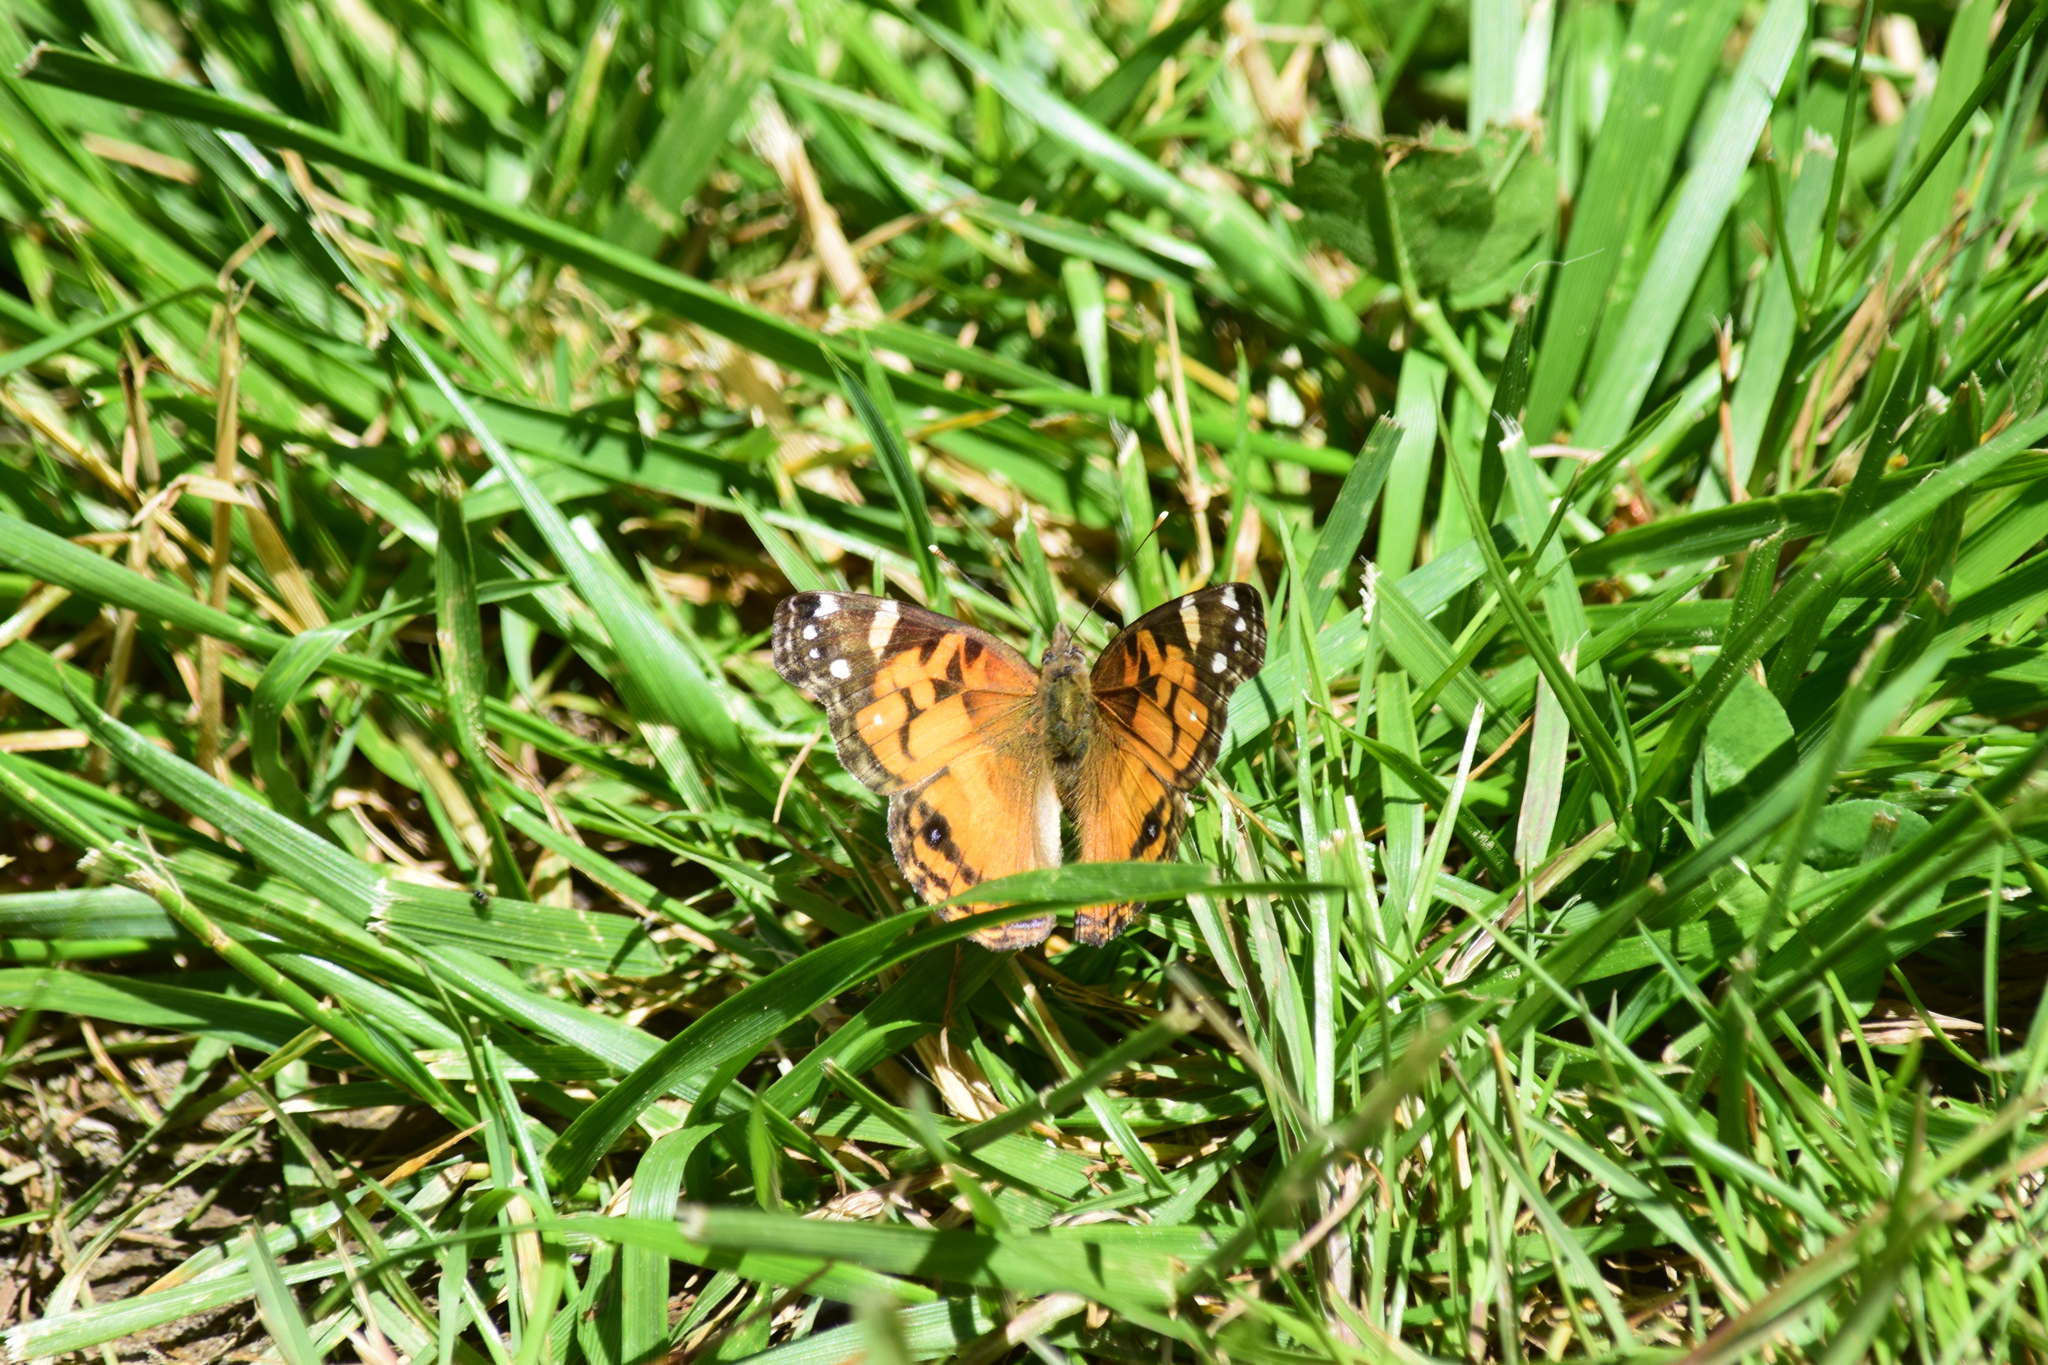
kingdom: Animalia
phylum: Arthropoda
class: Insecta
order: Lepidoptera
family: Nymphalidae
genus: Vanessa
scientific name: Vanessa virginiensis
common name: American lady
